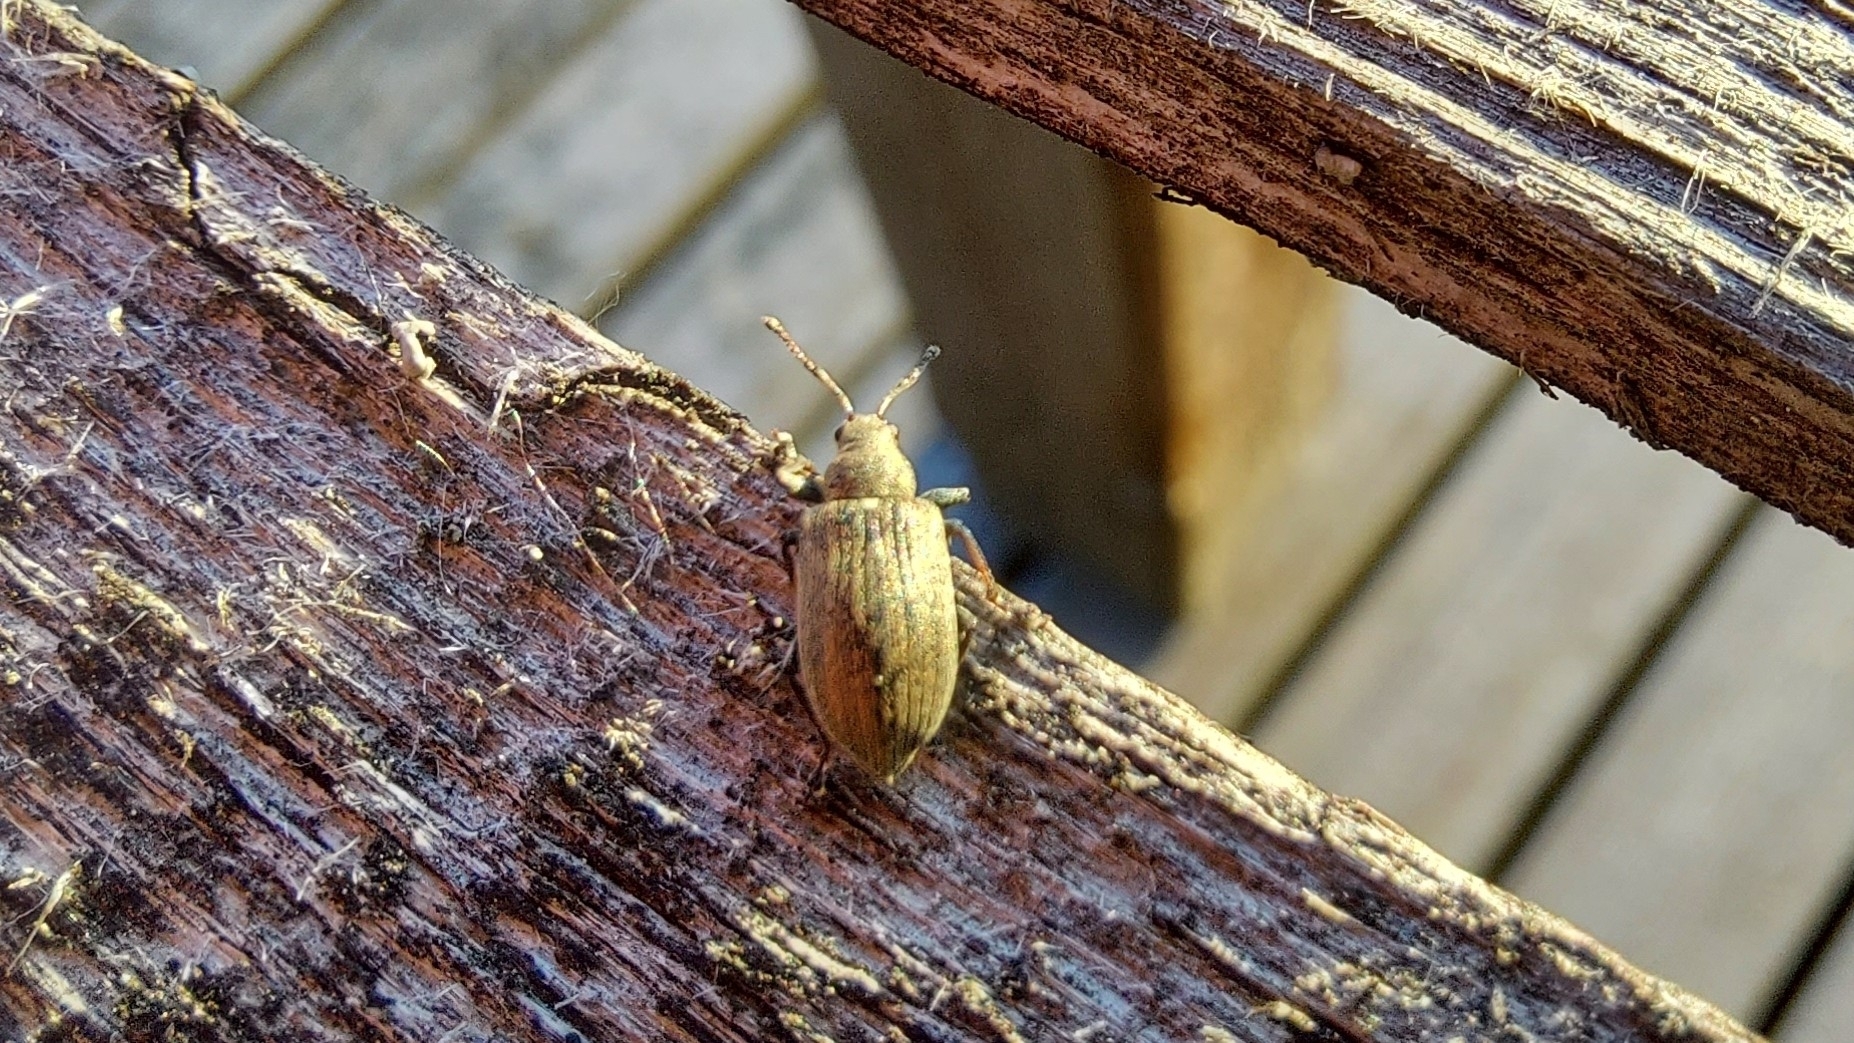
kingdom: Animalia
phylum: Arthropoda
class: Insecta
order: Coleoptera
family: Curculionidae
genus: Phyllobius
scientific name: Phyllobius pyri
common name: Common leaf weevil
